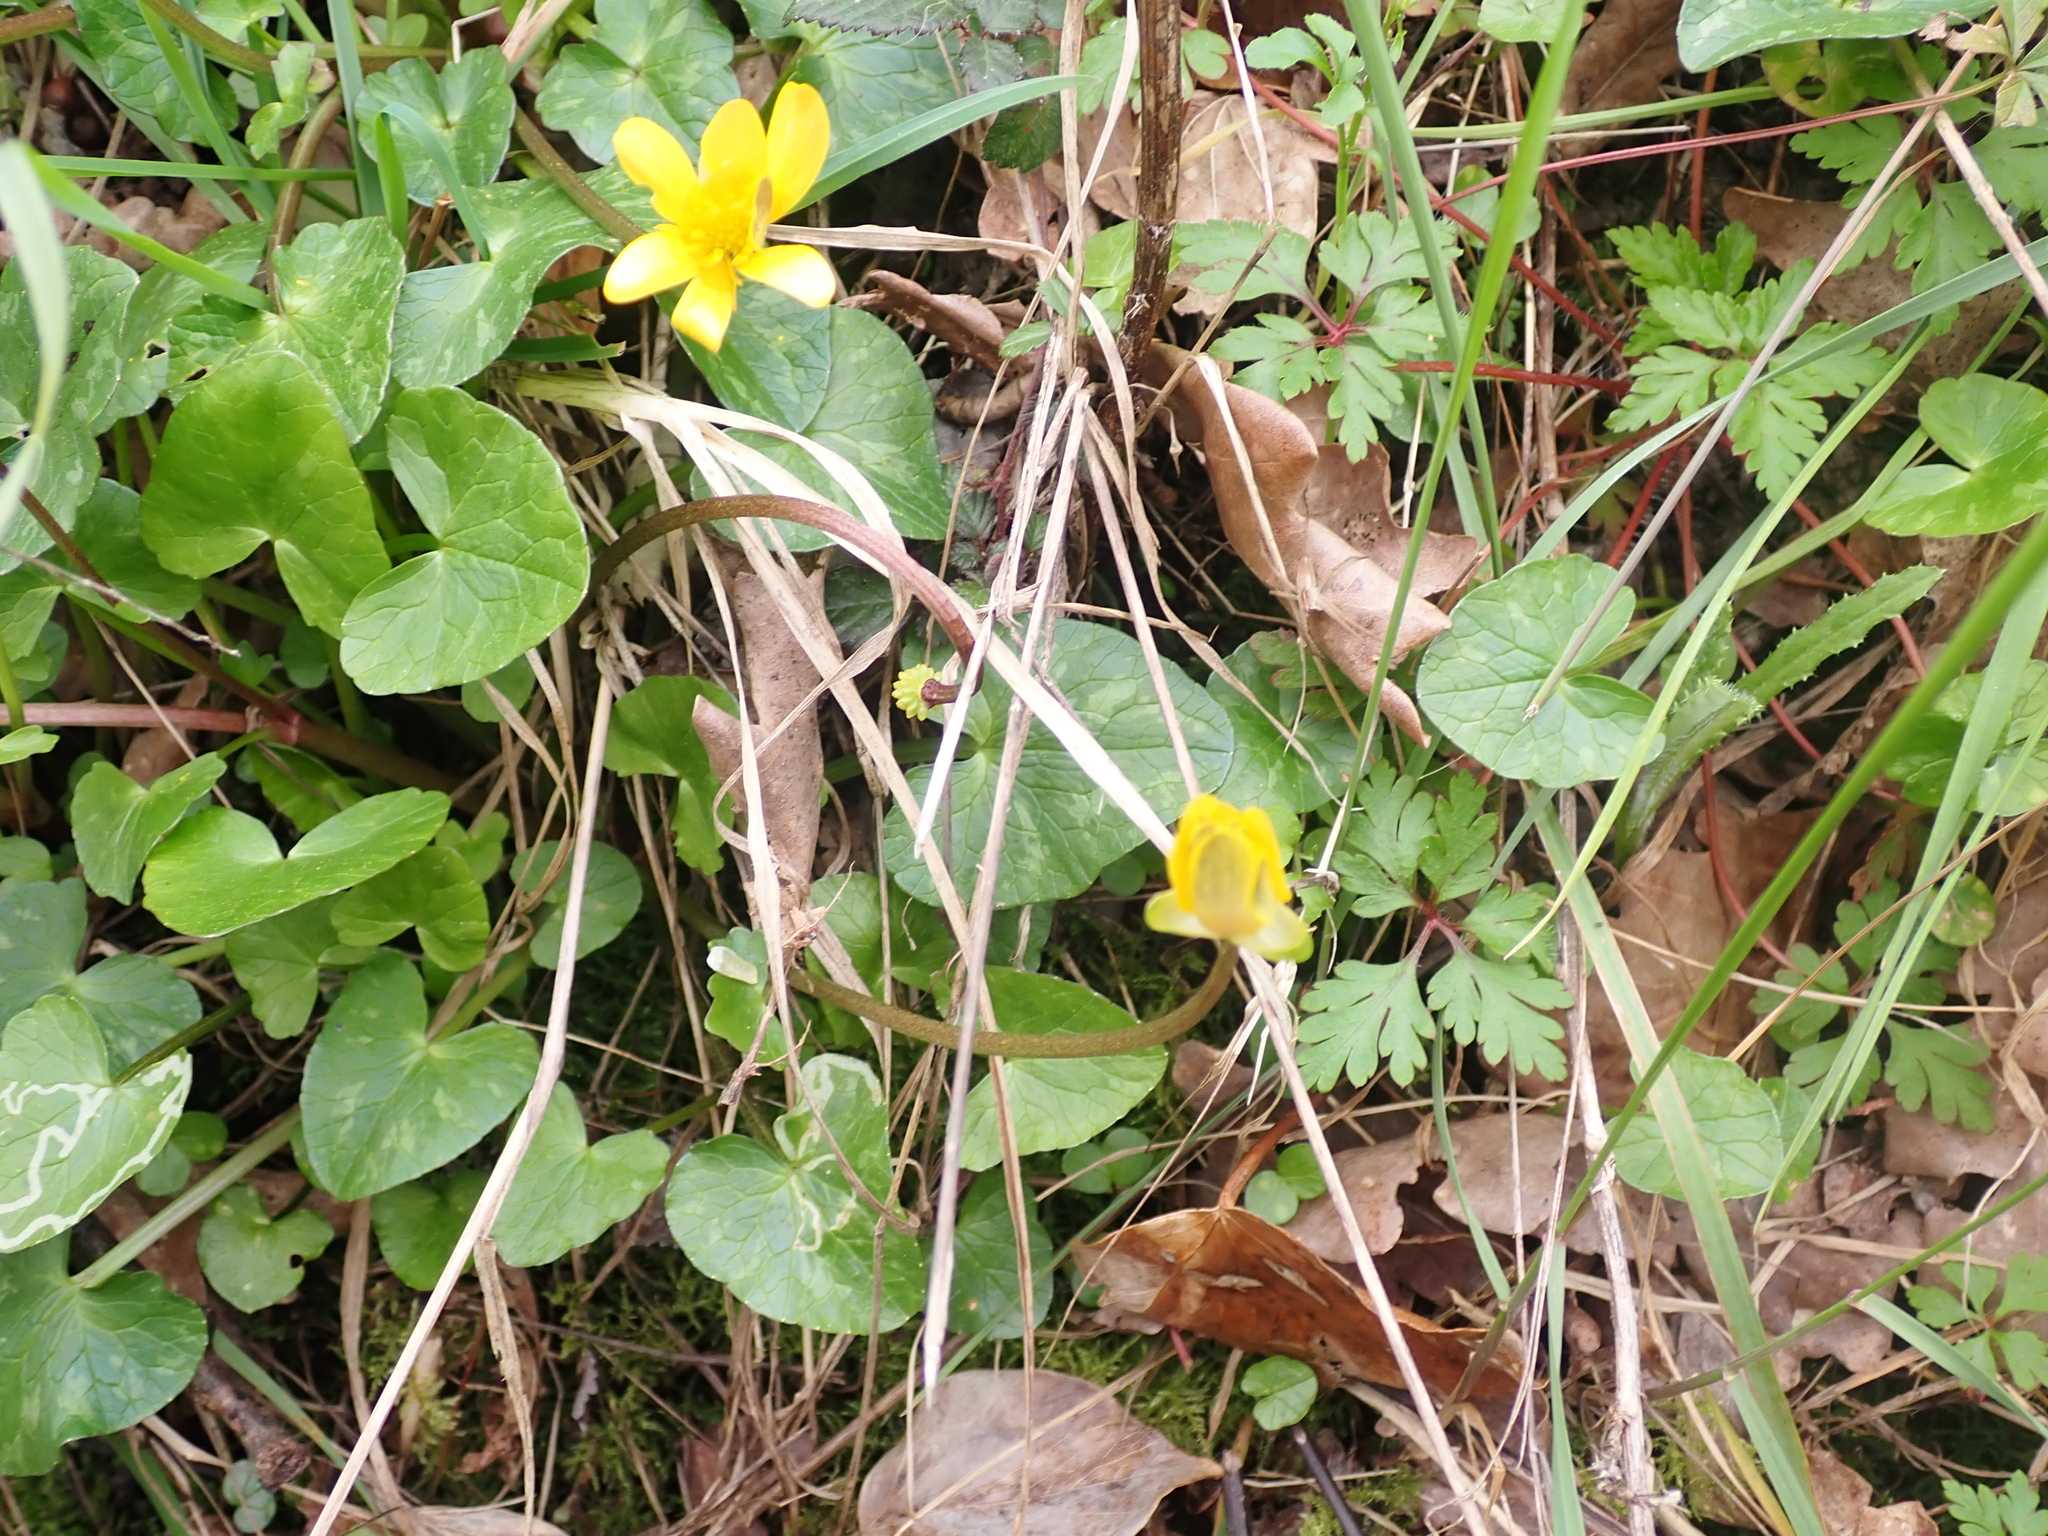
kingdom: Plantae
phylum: Tracheophyta
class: Magnoliopsida
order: Ranunculales
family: Ranunculaceae
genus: Ficaria
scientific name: Ficaria verna
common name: Lesser celandine
